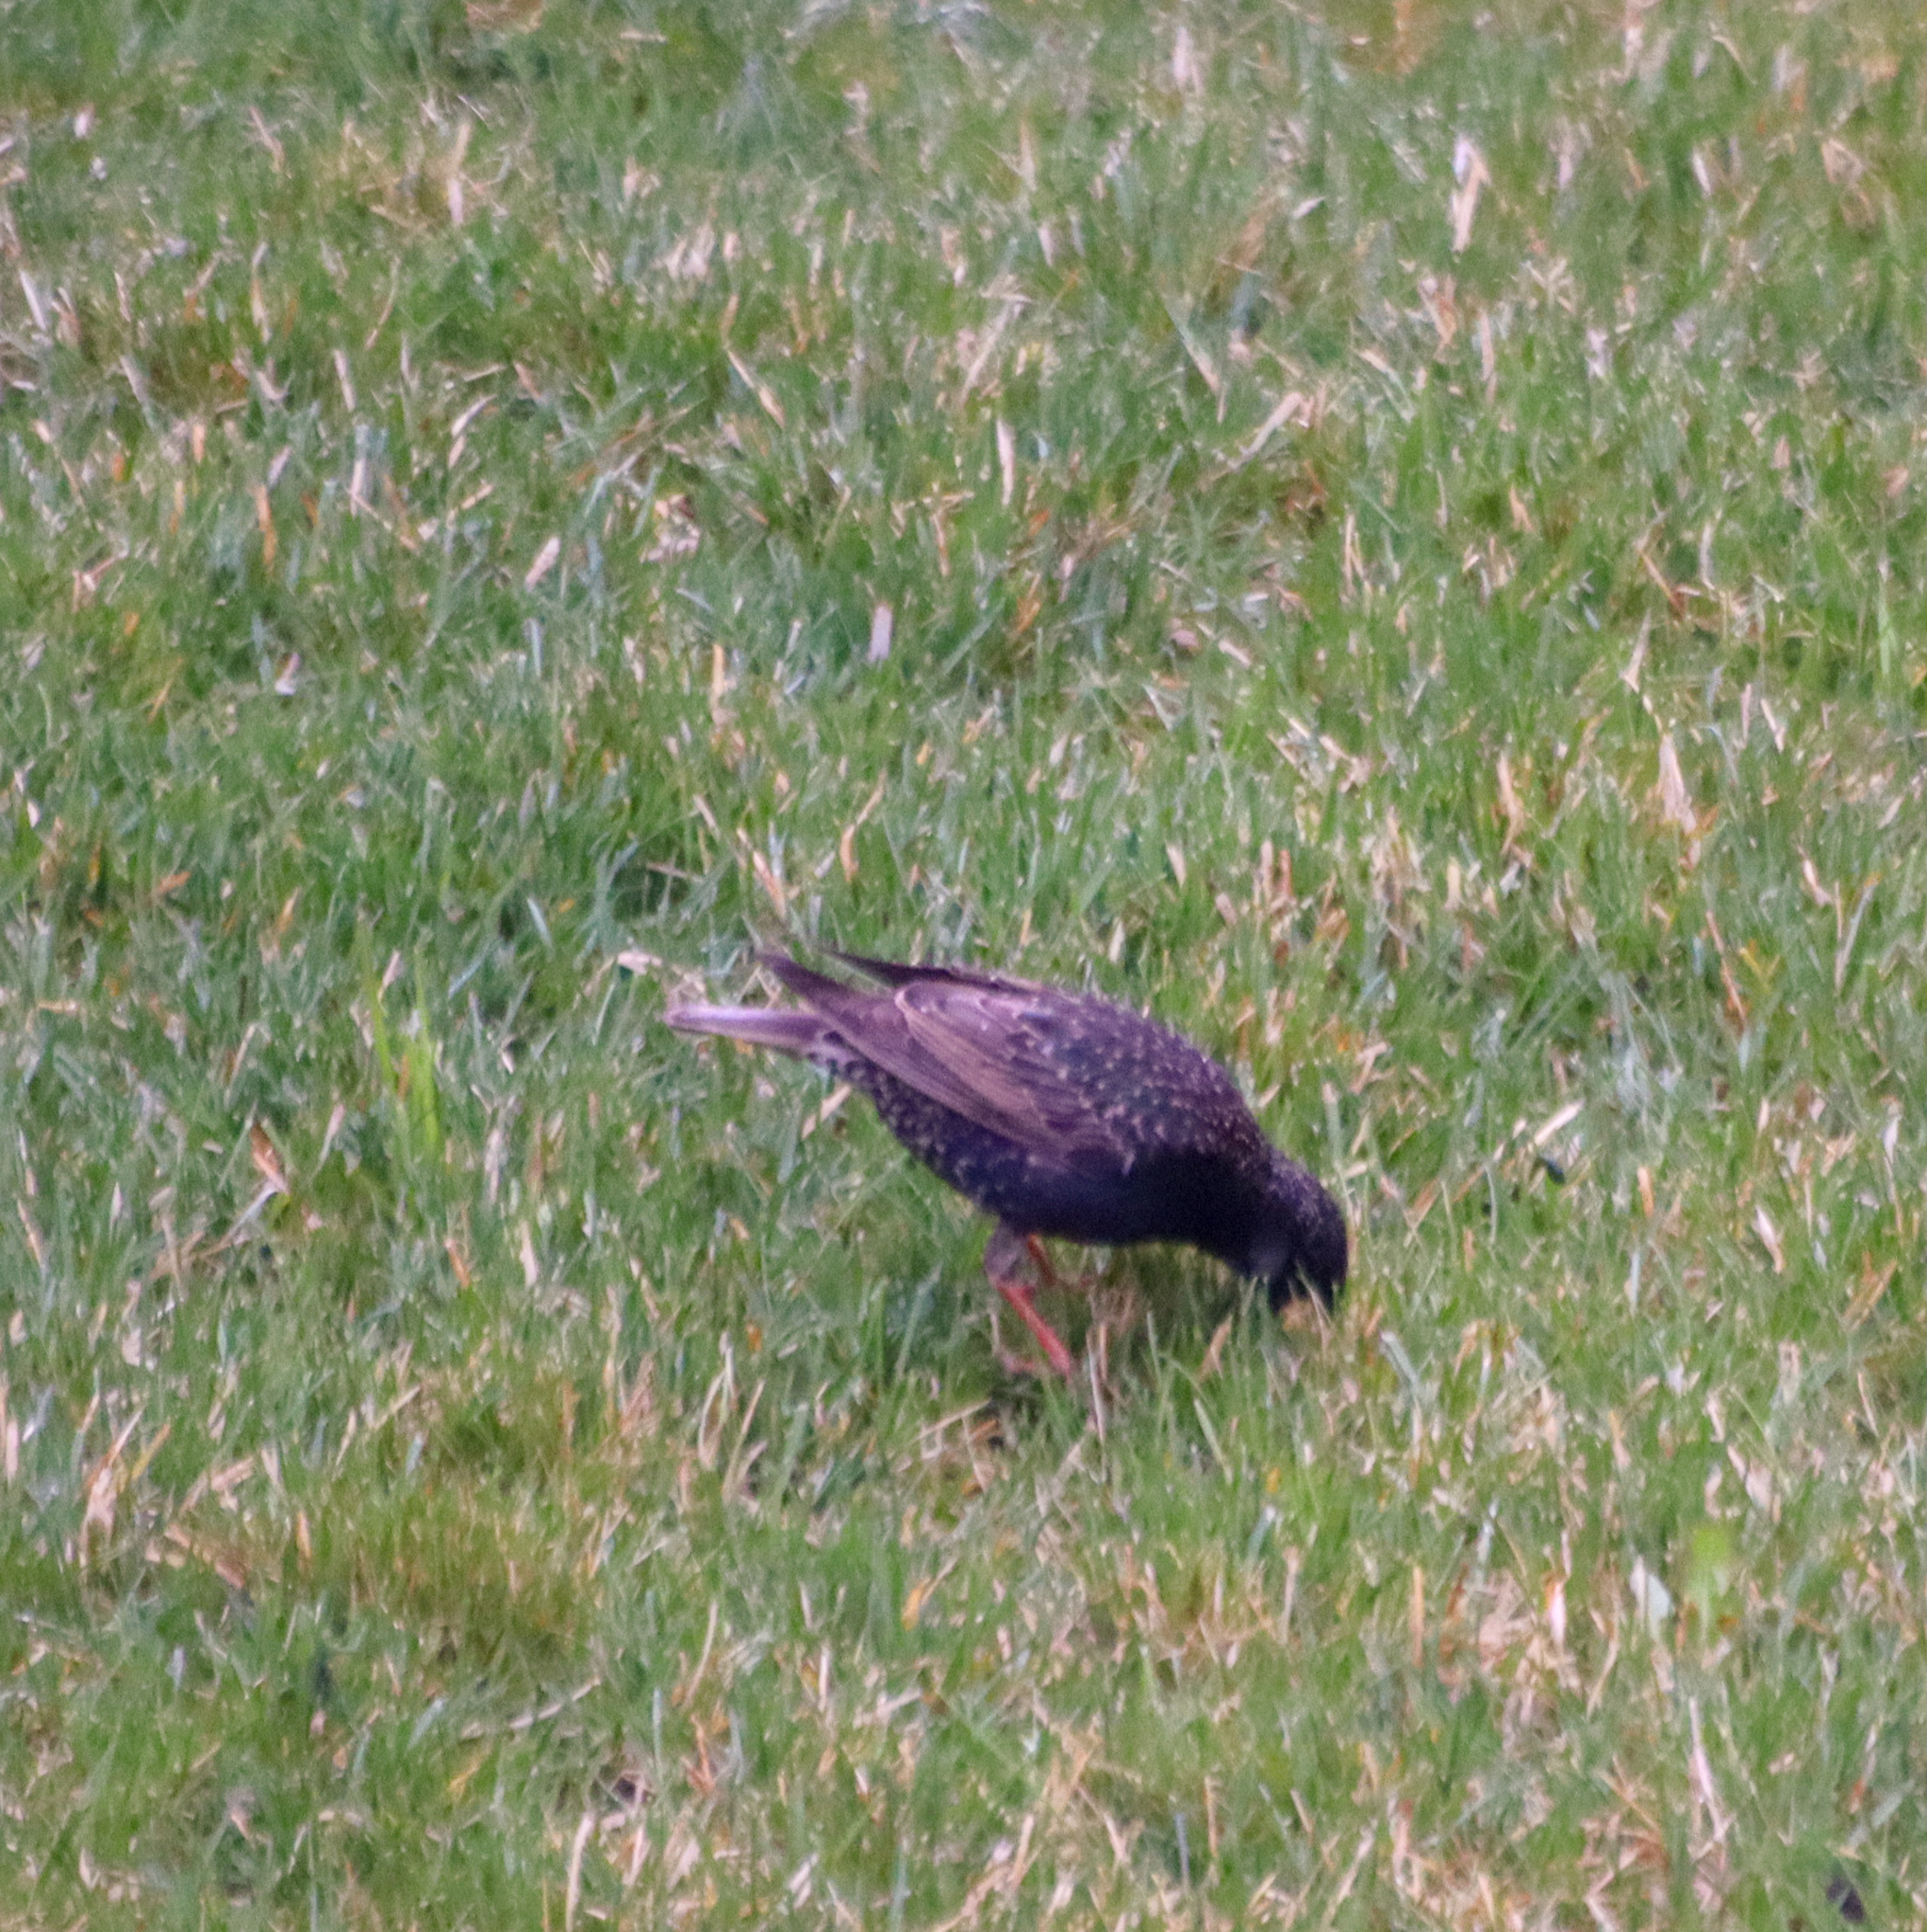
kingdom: Animalia
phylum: Chordata
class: Aves
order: Passeriformes
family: Sturnidae
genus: Sturnus
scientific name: Sturnus vulgaris
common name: Common starling
